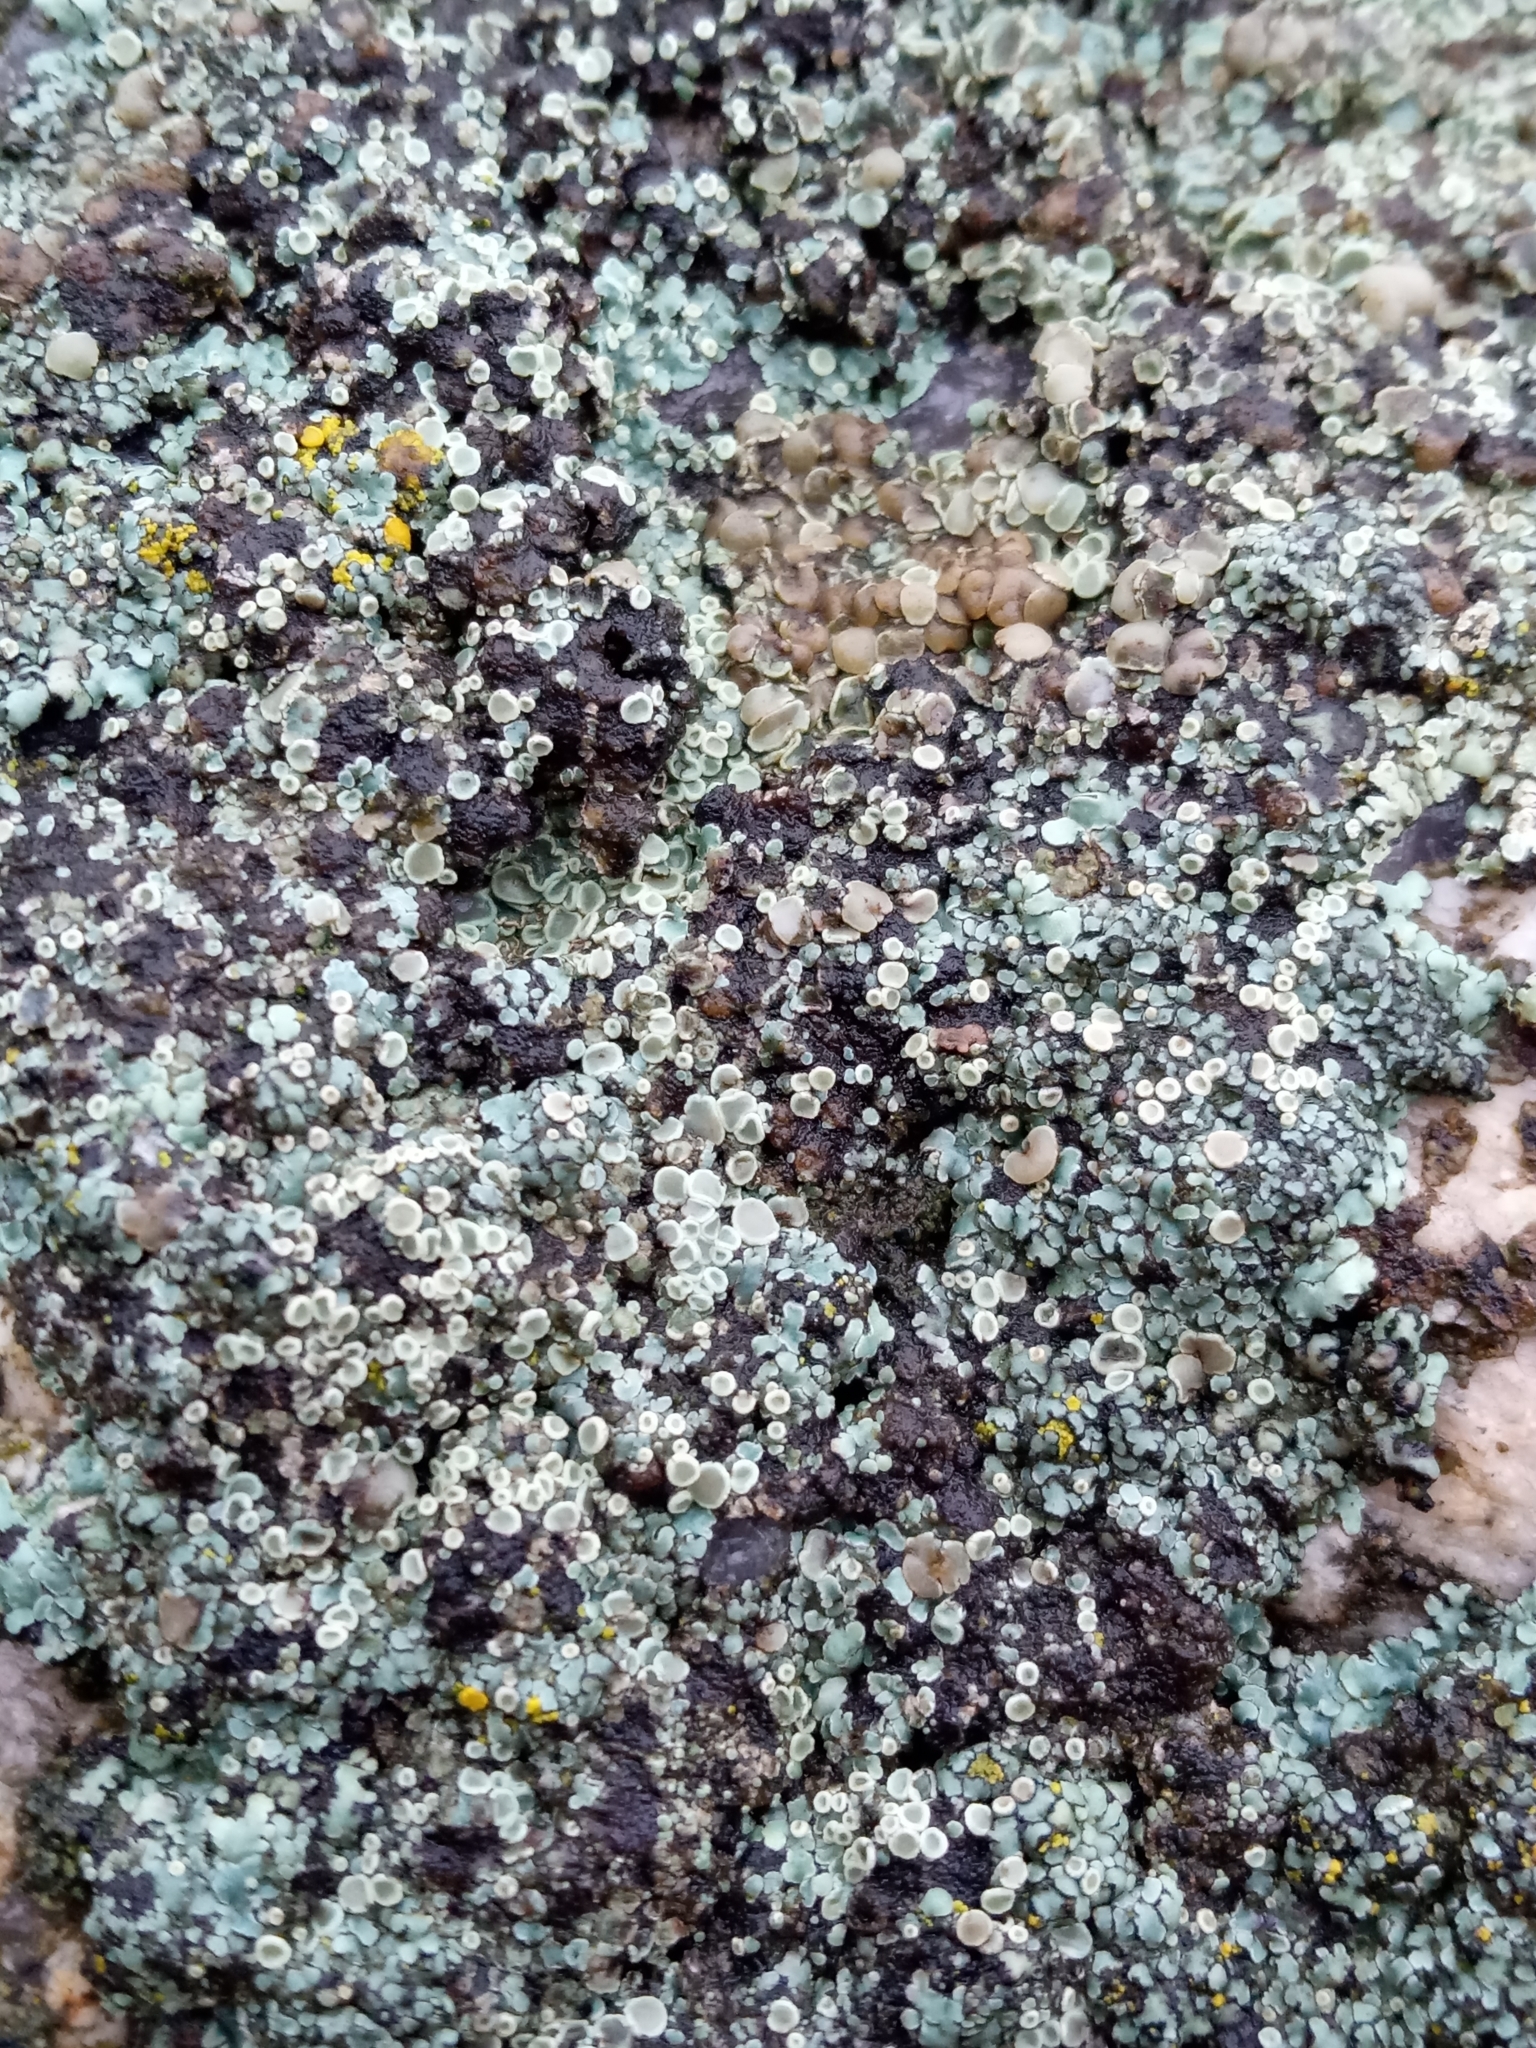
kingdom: Fungi
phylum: Ascomycota
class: Lecanoromycetes
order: Lecanorales
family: Lecanoraceae
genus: Protoparmeliopsis
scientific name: Protoparmeliopsis muralis
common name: Stonewall rim lichen
